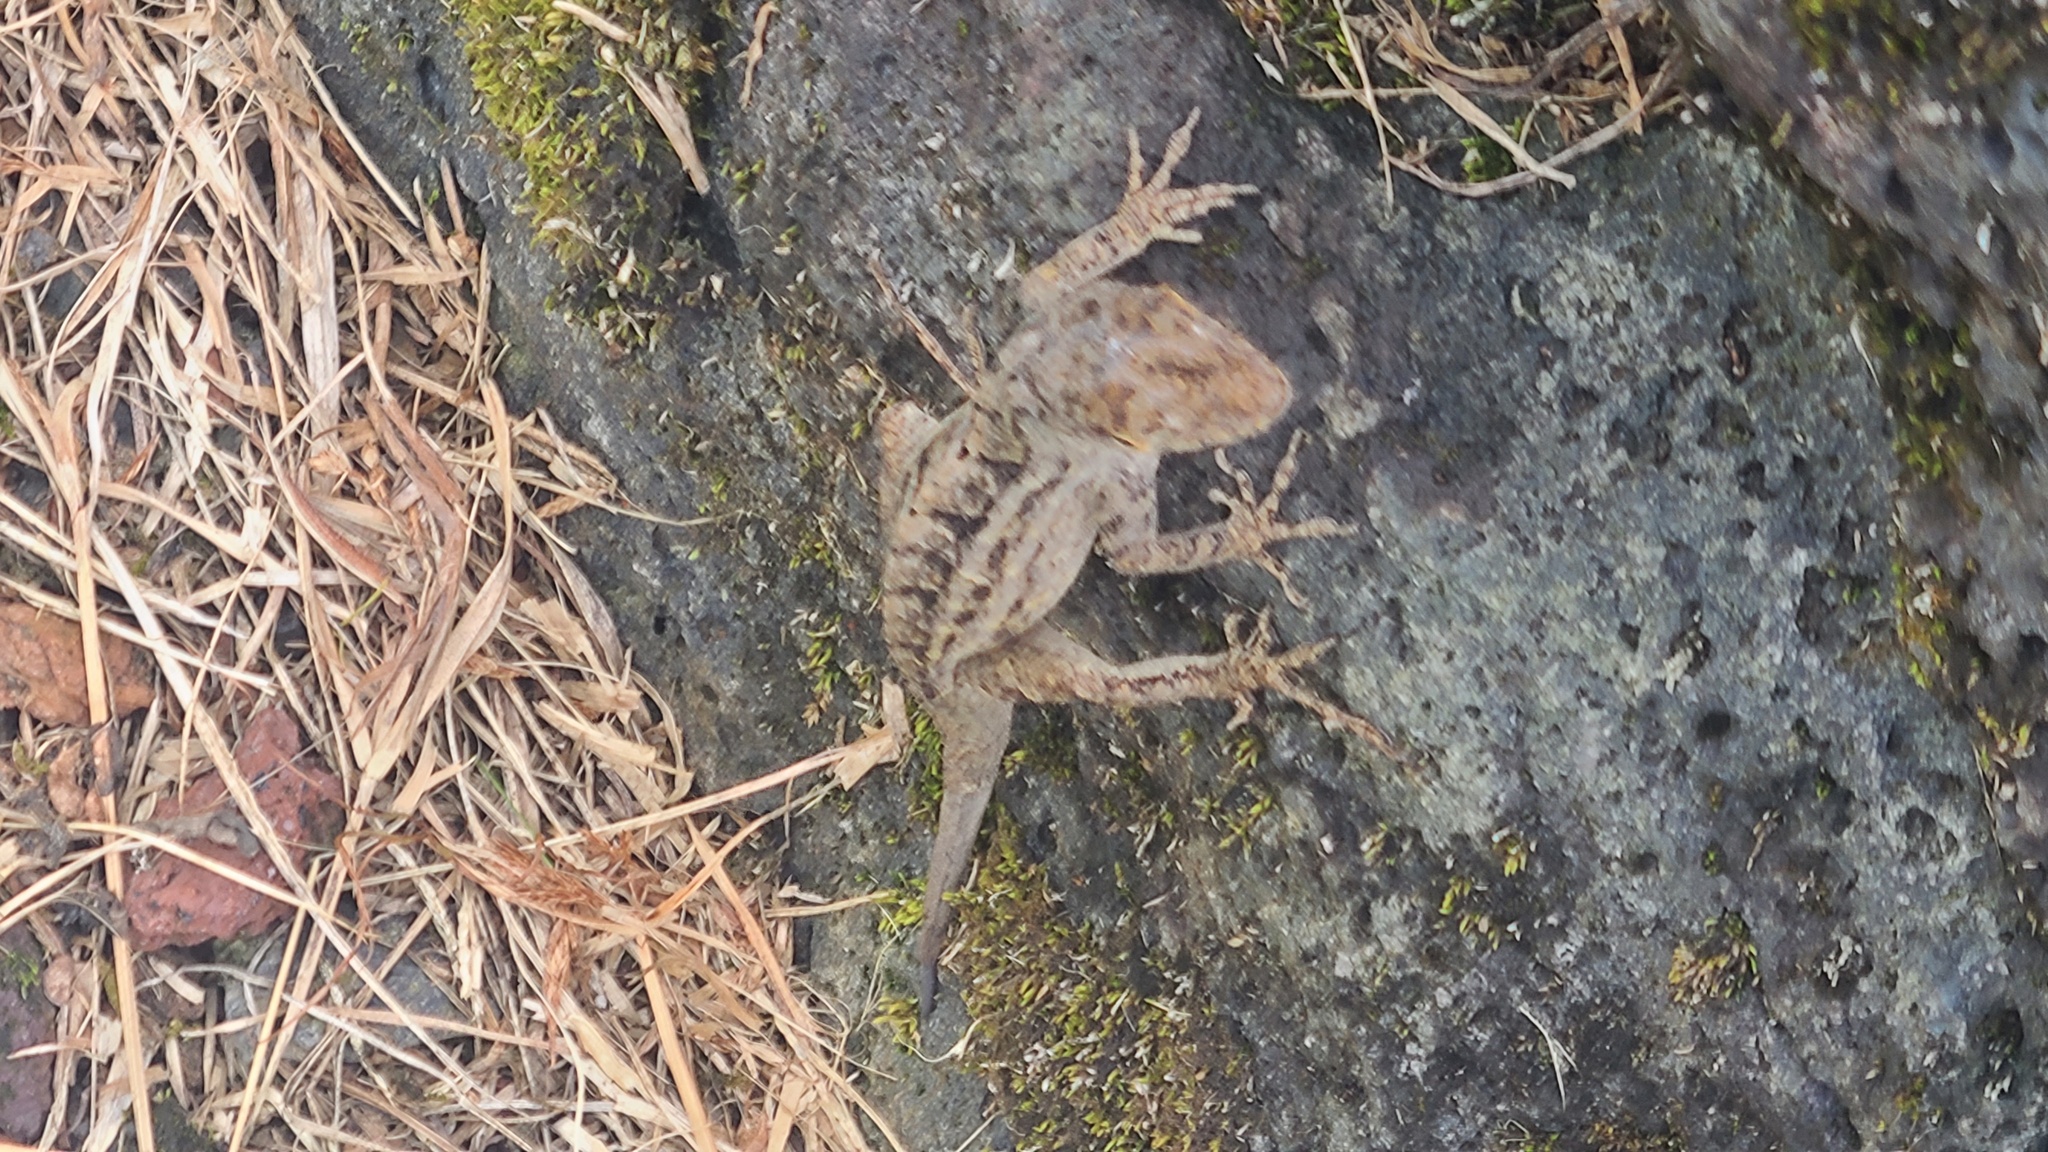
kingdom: Animalia
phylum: Chordata
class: Squamata
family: Dactyloidae
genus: Anolis
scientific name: Anolis sagrei
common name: Brown anole
